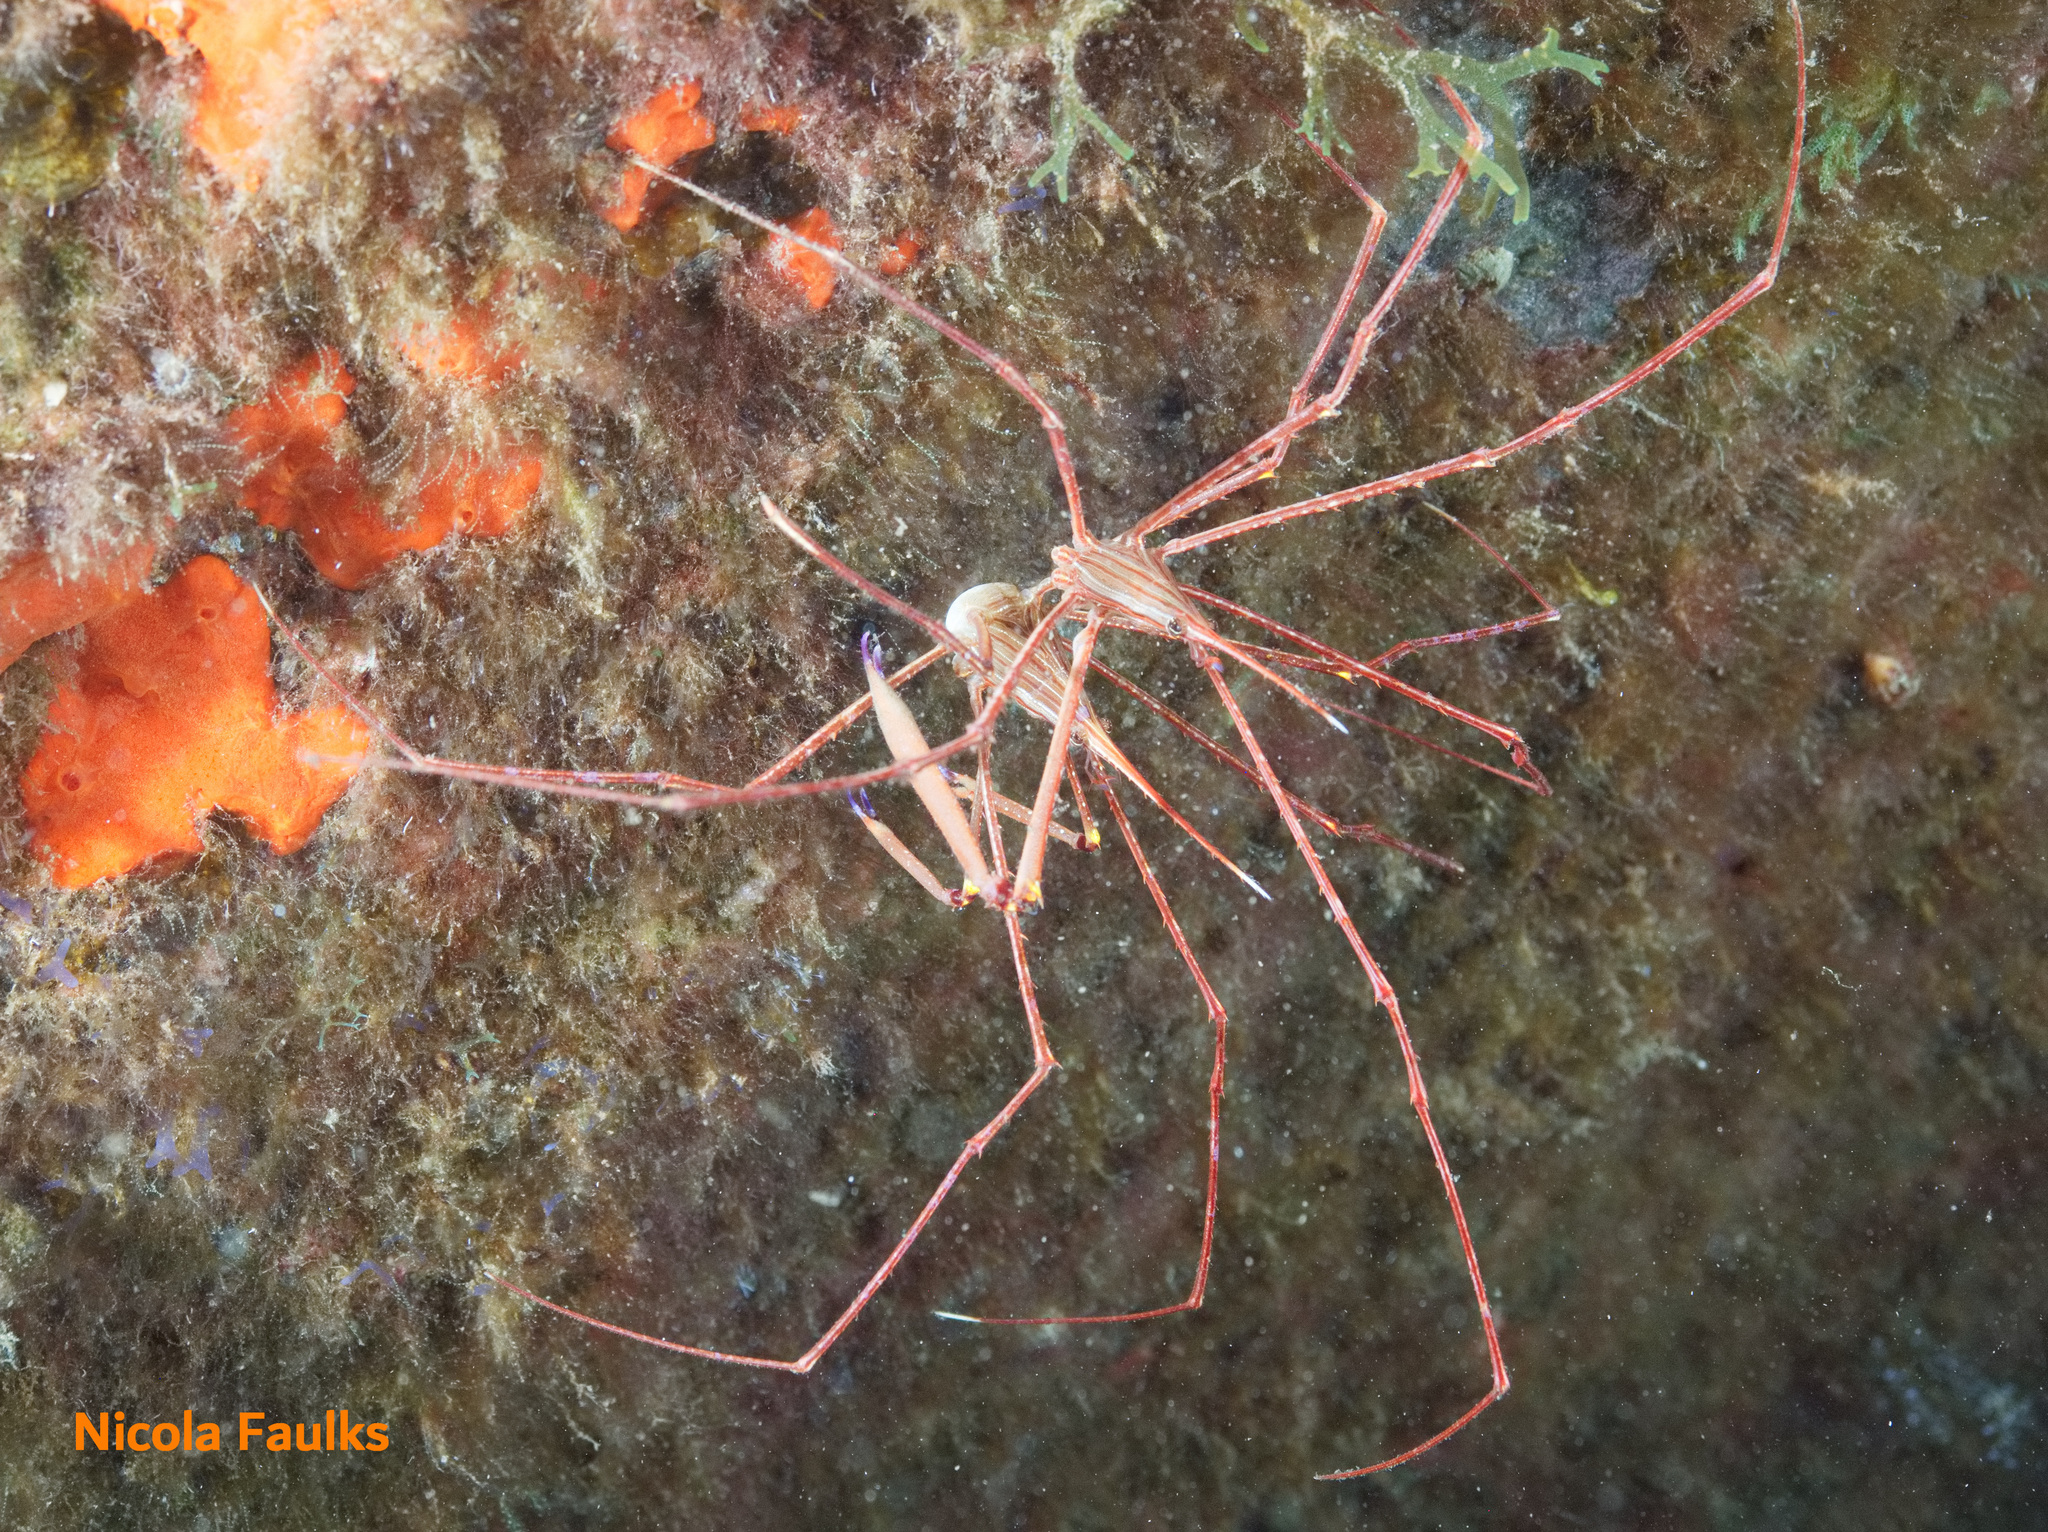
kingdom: Animalia
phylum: Arthropoda
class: Malacostraca
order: Decapoda
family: Inachoididae
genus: Stenorhynchus
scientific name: Stenorhynchus lanceolatus
